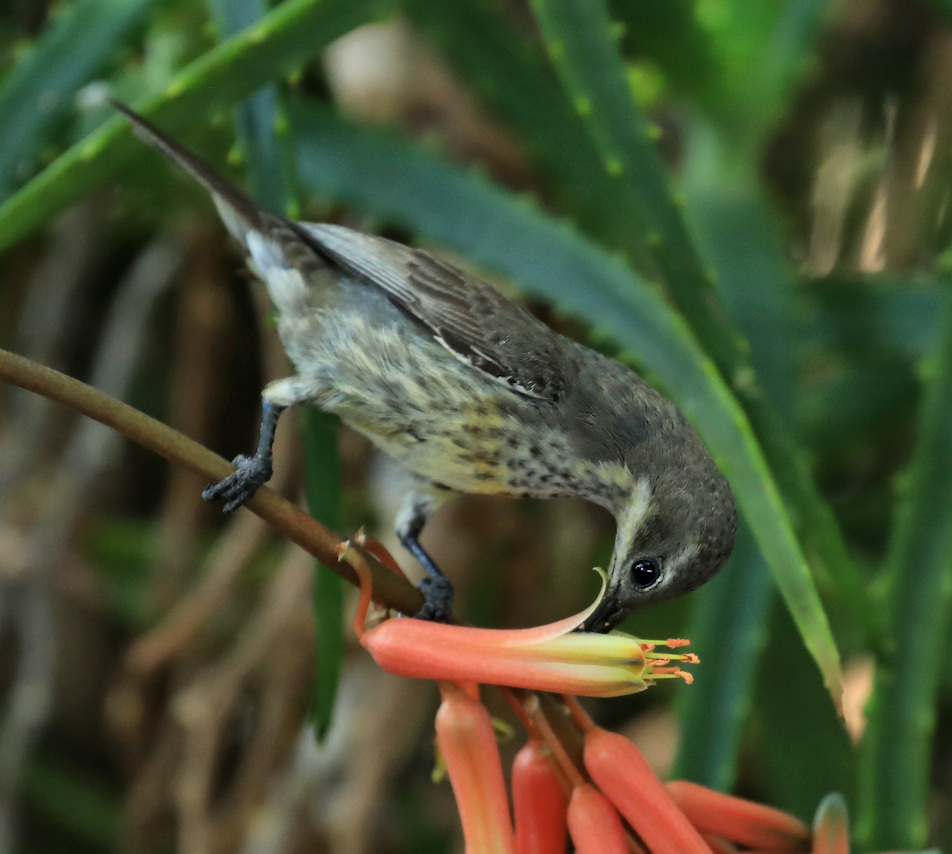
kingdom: Animalia
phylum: Chordata
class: Aves
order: Passeriformes
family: Nectariniidae
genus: Chalcomitra
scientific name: Chalcomitra amethystina
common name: Amethyst sunbird
